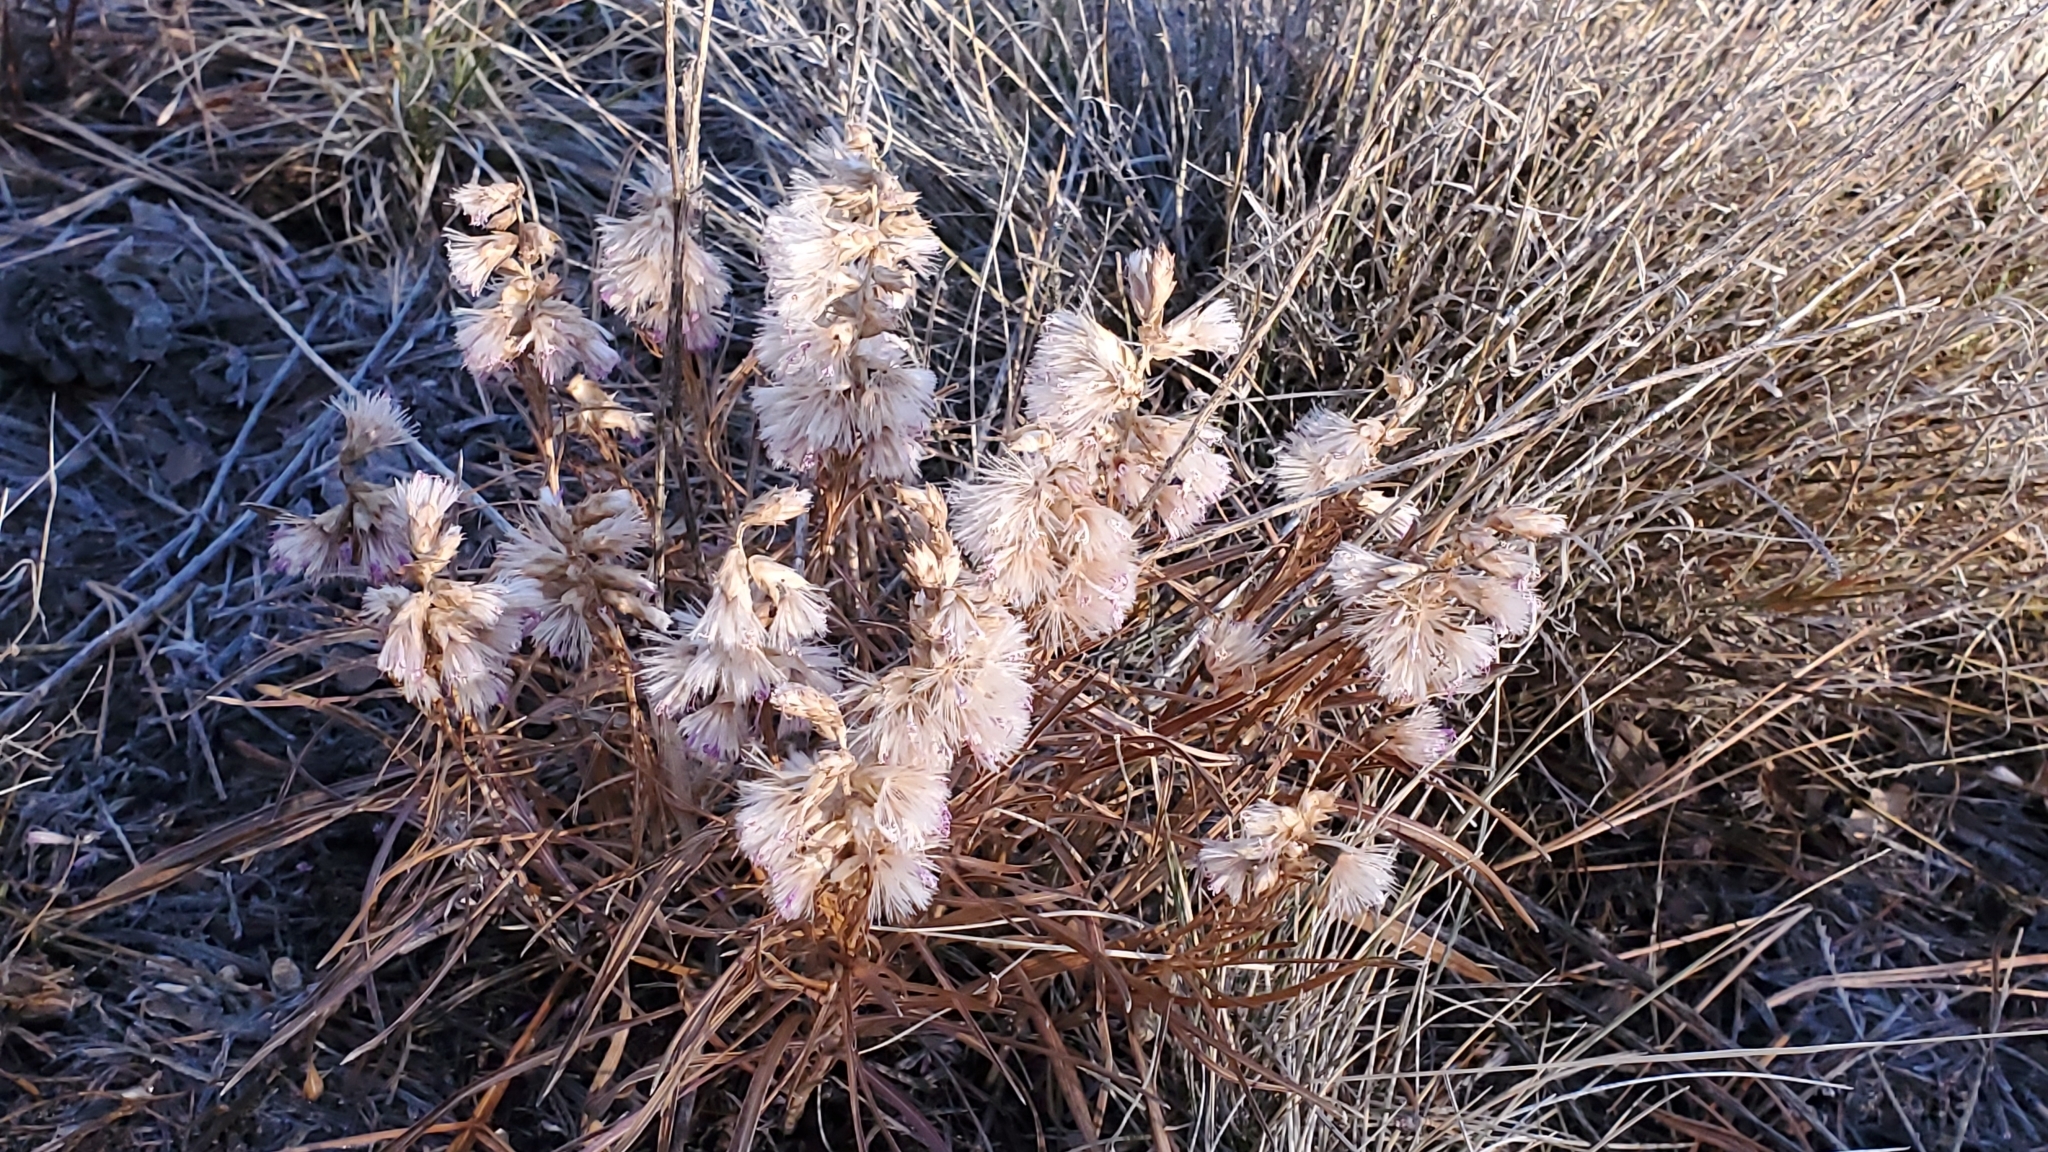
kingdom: Plantae
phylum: Tracheophyta
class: Magnoliopsida
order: Asterales
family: Asteraceae
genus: Liatris
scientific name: Liatris punctata
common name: Dotted gayfeather
